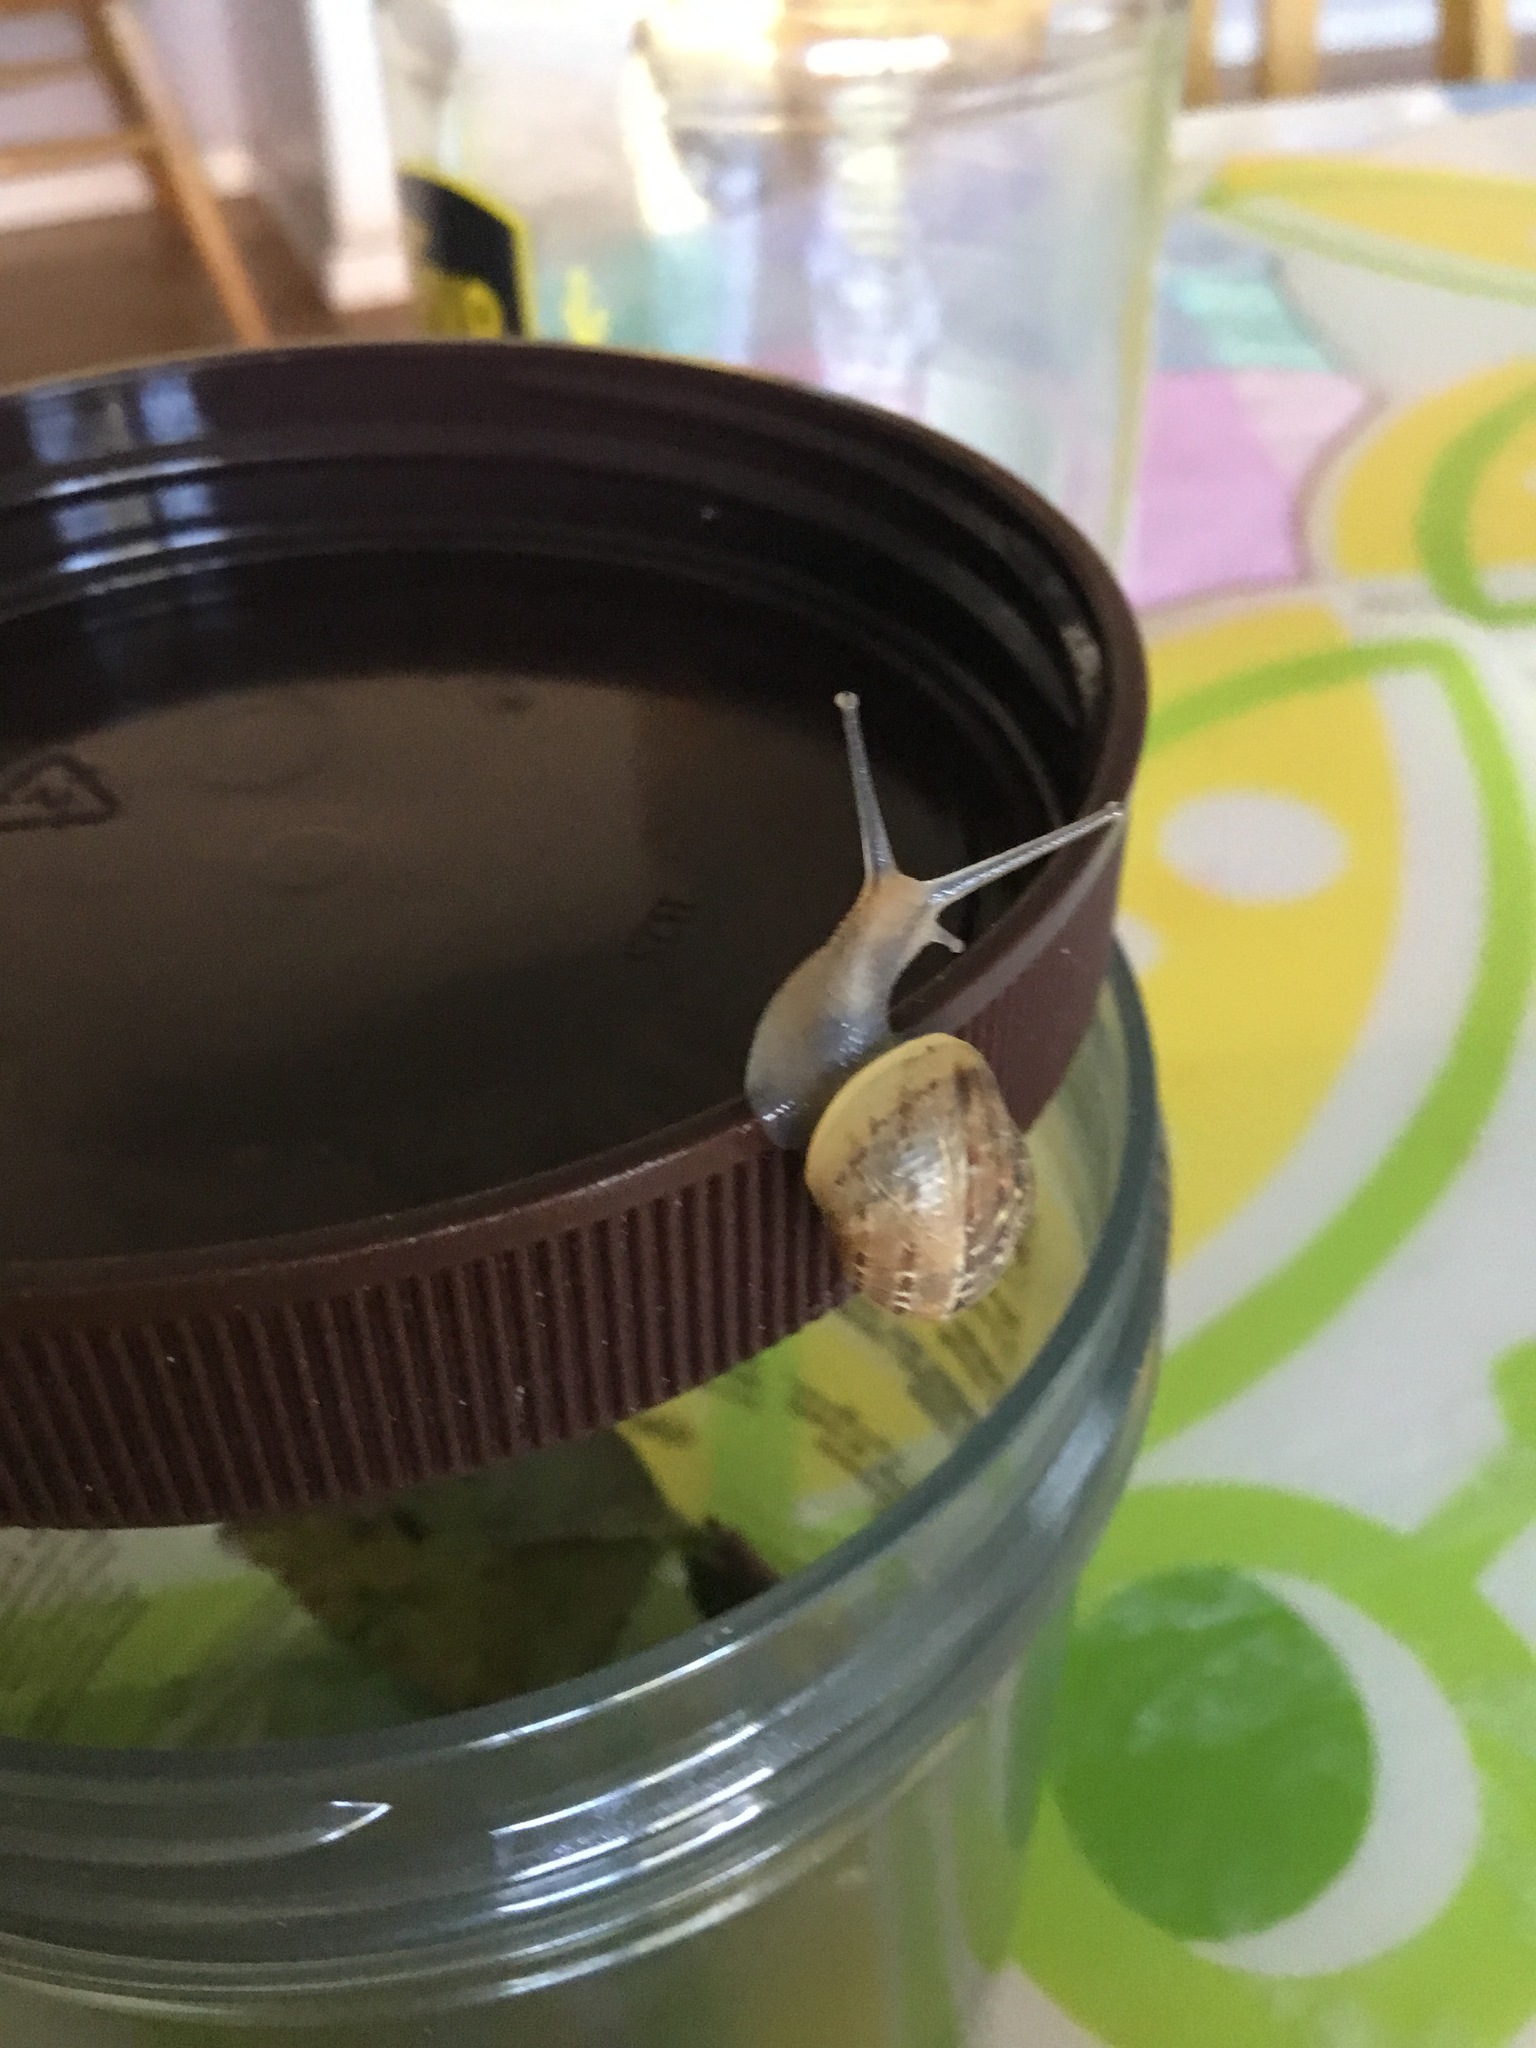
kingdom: Animalia
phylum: Mollusca
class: Gastropoda
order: Stylommatophora
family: Helicidae
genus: Cornu
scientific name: Cornu aspersum
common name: Brown garden snail
